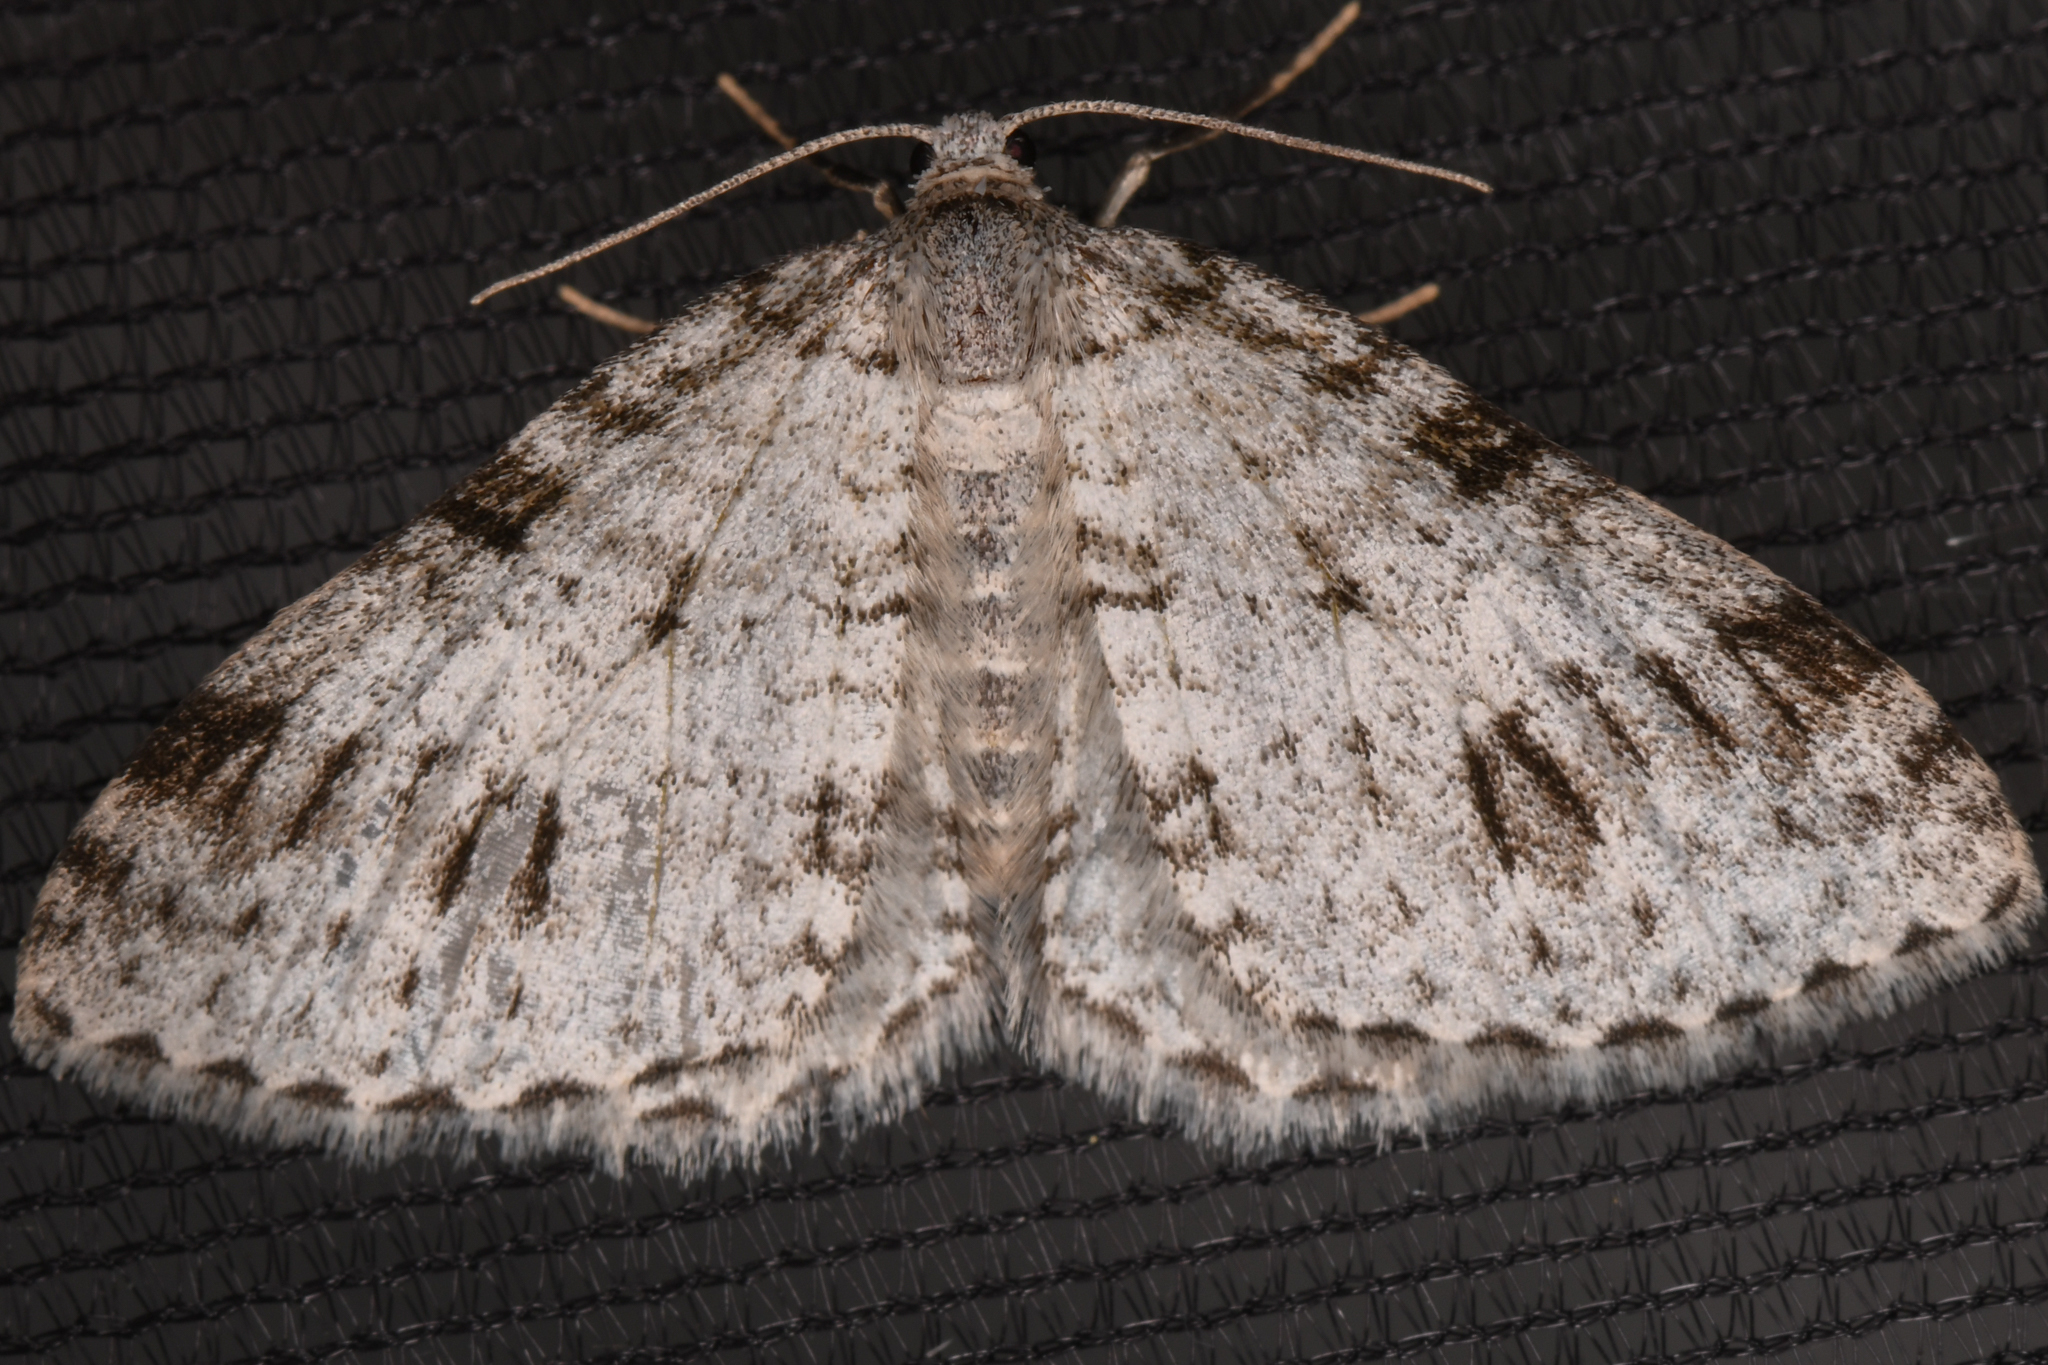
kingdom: Animalia
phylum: Arthropoda
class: Insecta
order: Lepidoptera
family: Geometridae
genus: Venusia
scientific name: Venusia cambrica
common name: Welsh wave
